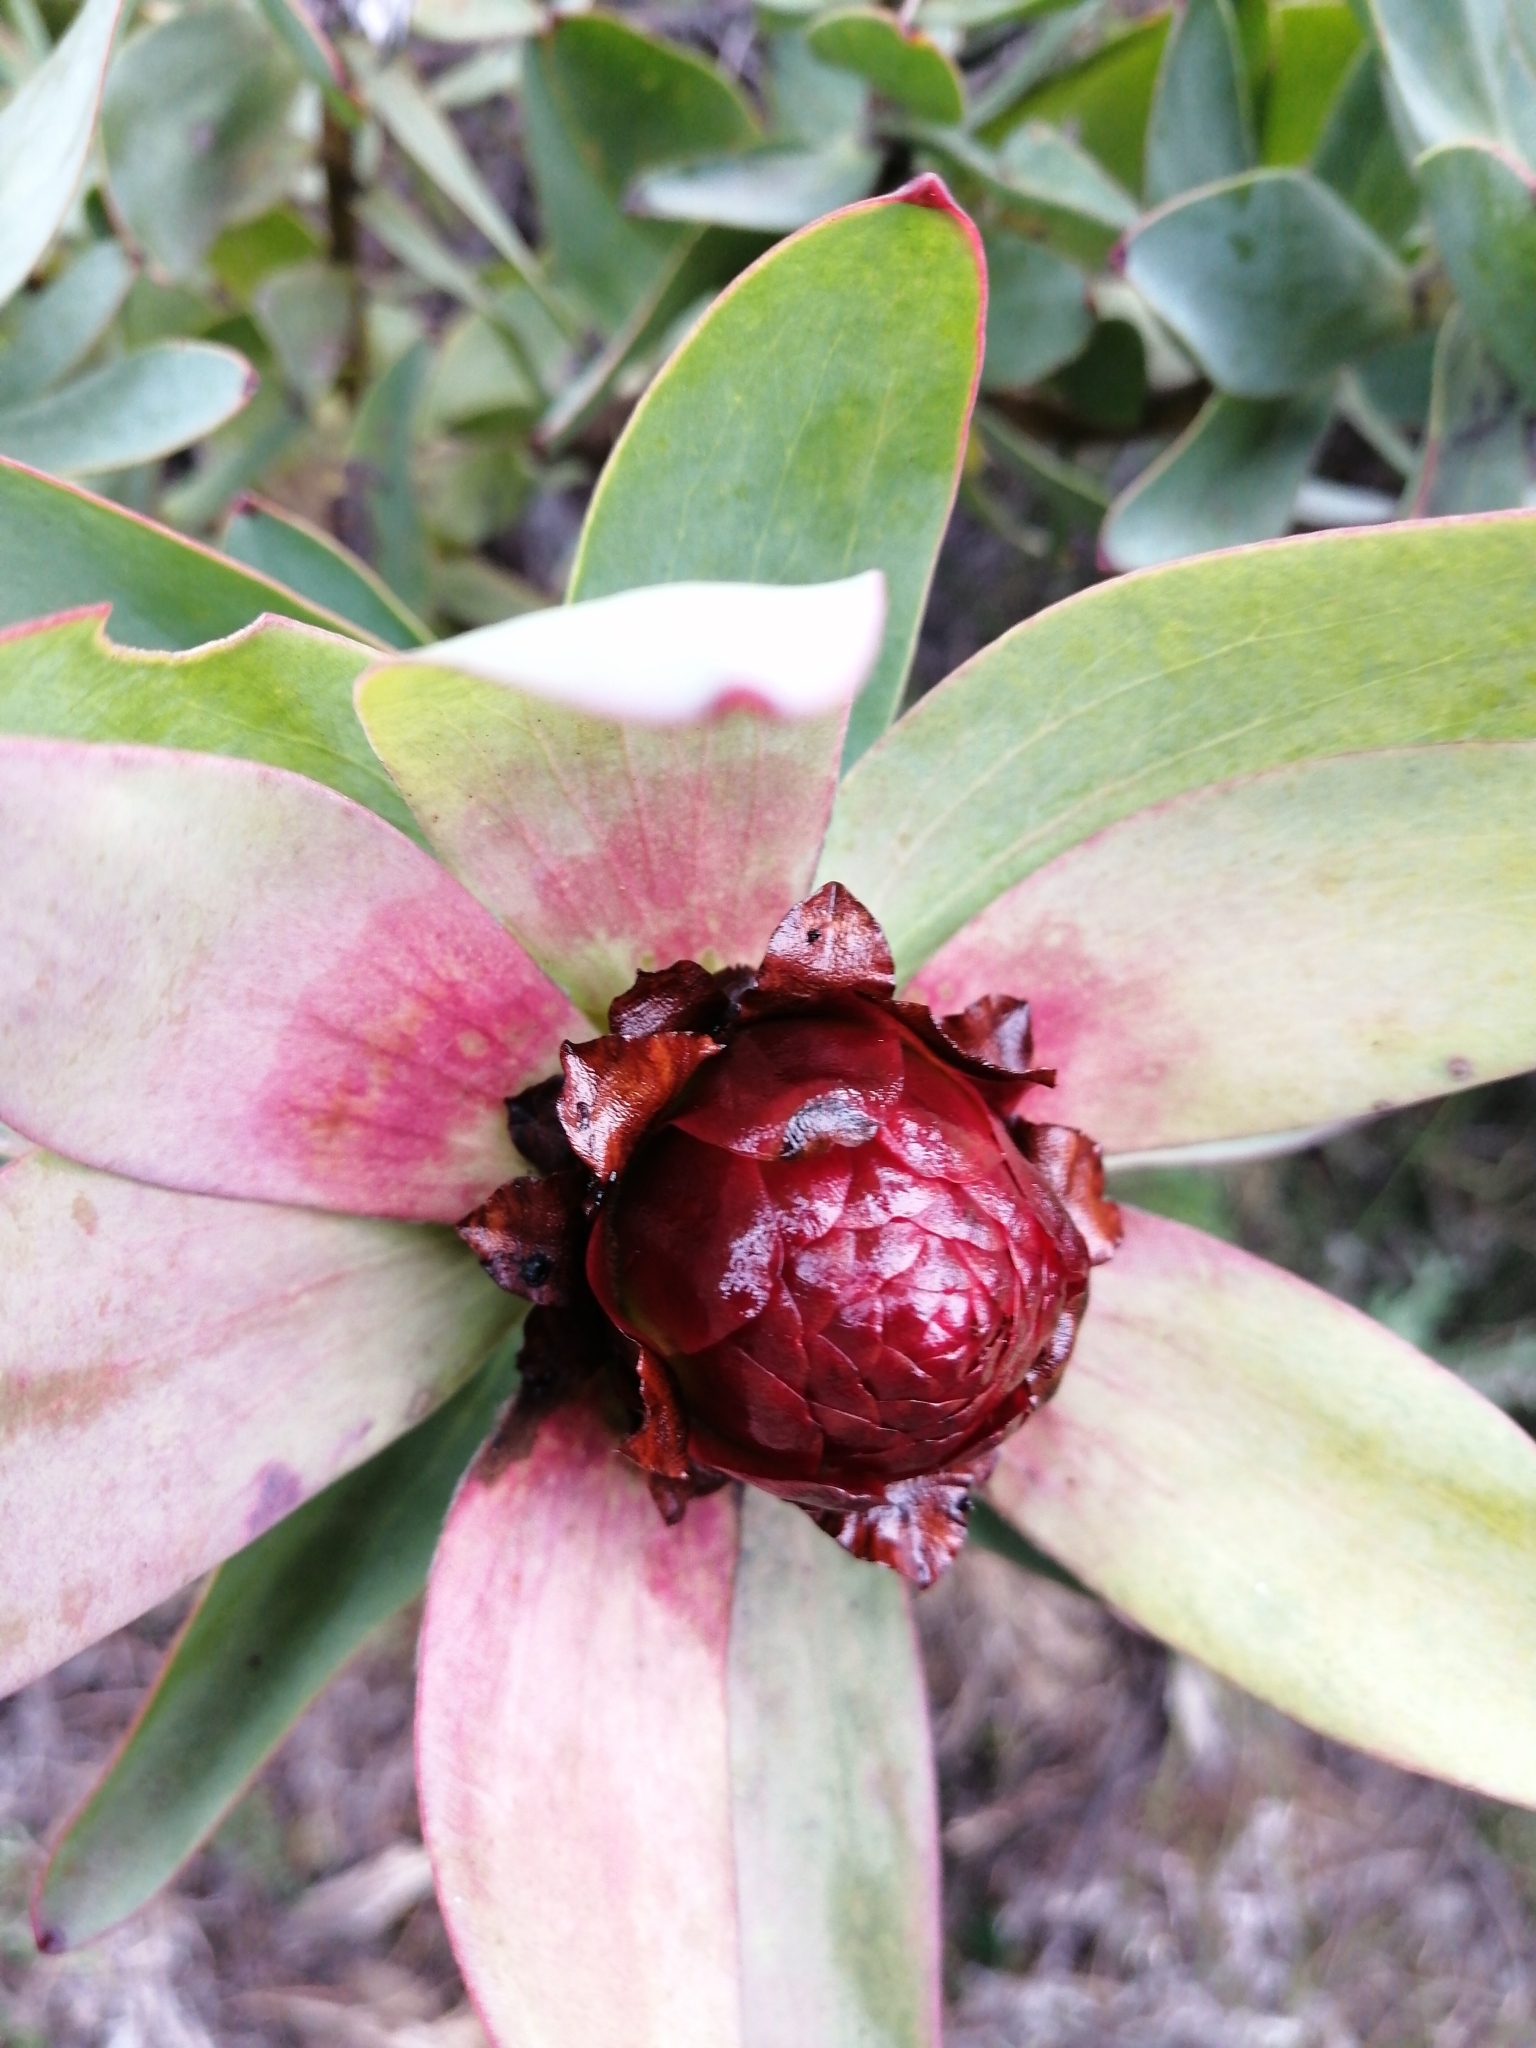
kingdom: Plantae
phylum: Tracheophyta
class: Magnoliopsida
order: Proteales
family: Proteaceae
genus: Leucadendron
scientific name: Leucadendron tinctum
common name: Spicy conebush
